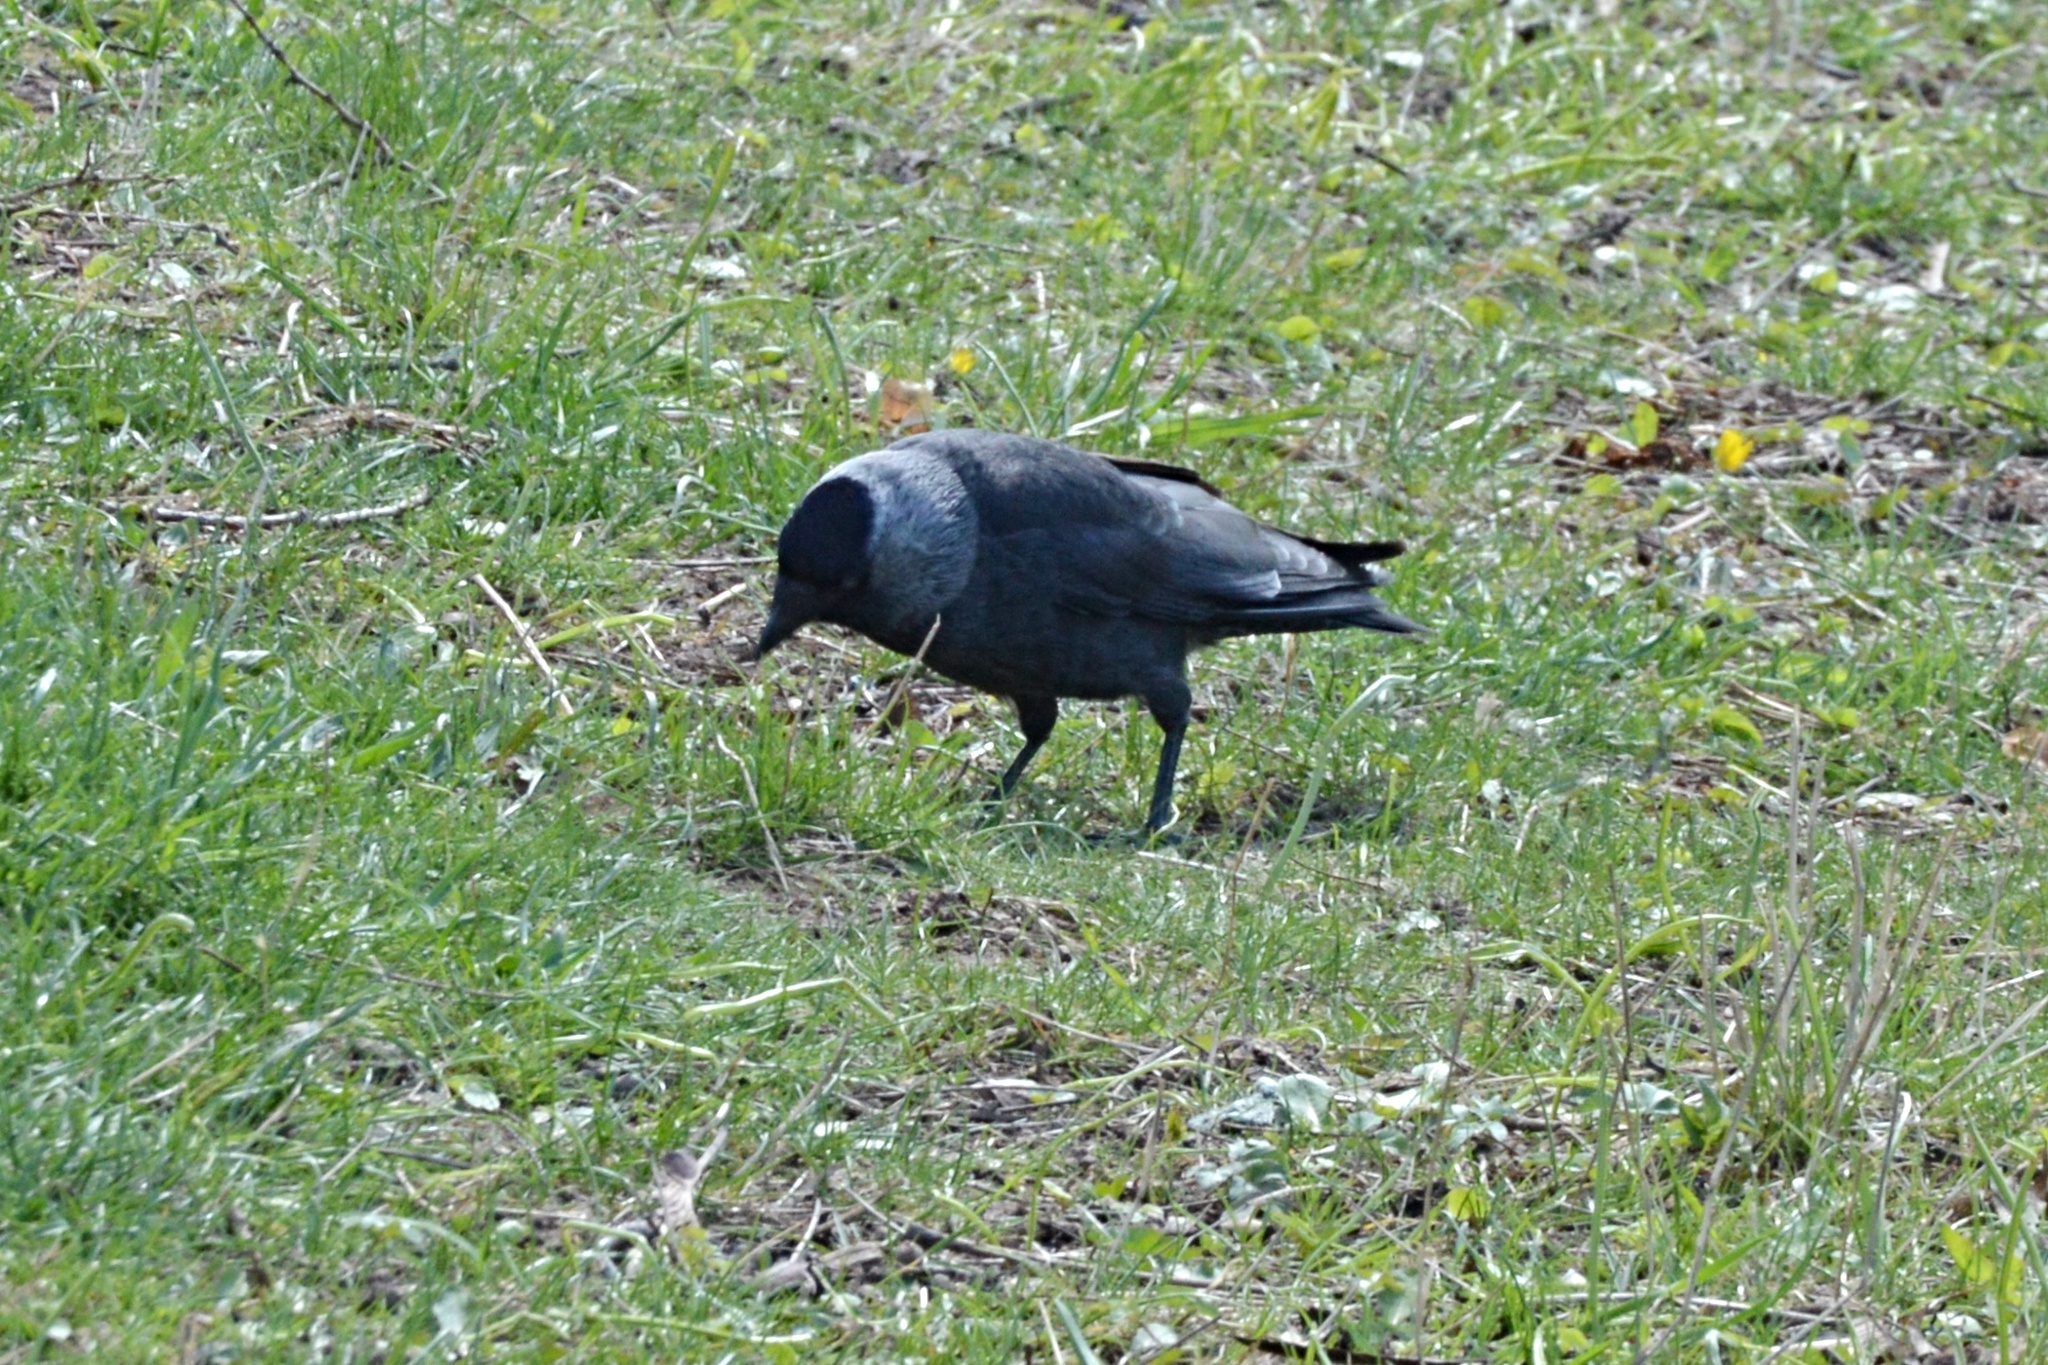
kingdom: Animalia
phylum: Chordata
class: Aves
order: Passeriformes
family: Corvidae
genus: Coloeus
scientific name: Coloeus monedula
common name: Western jackdaw
